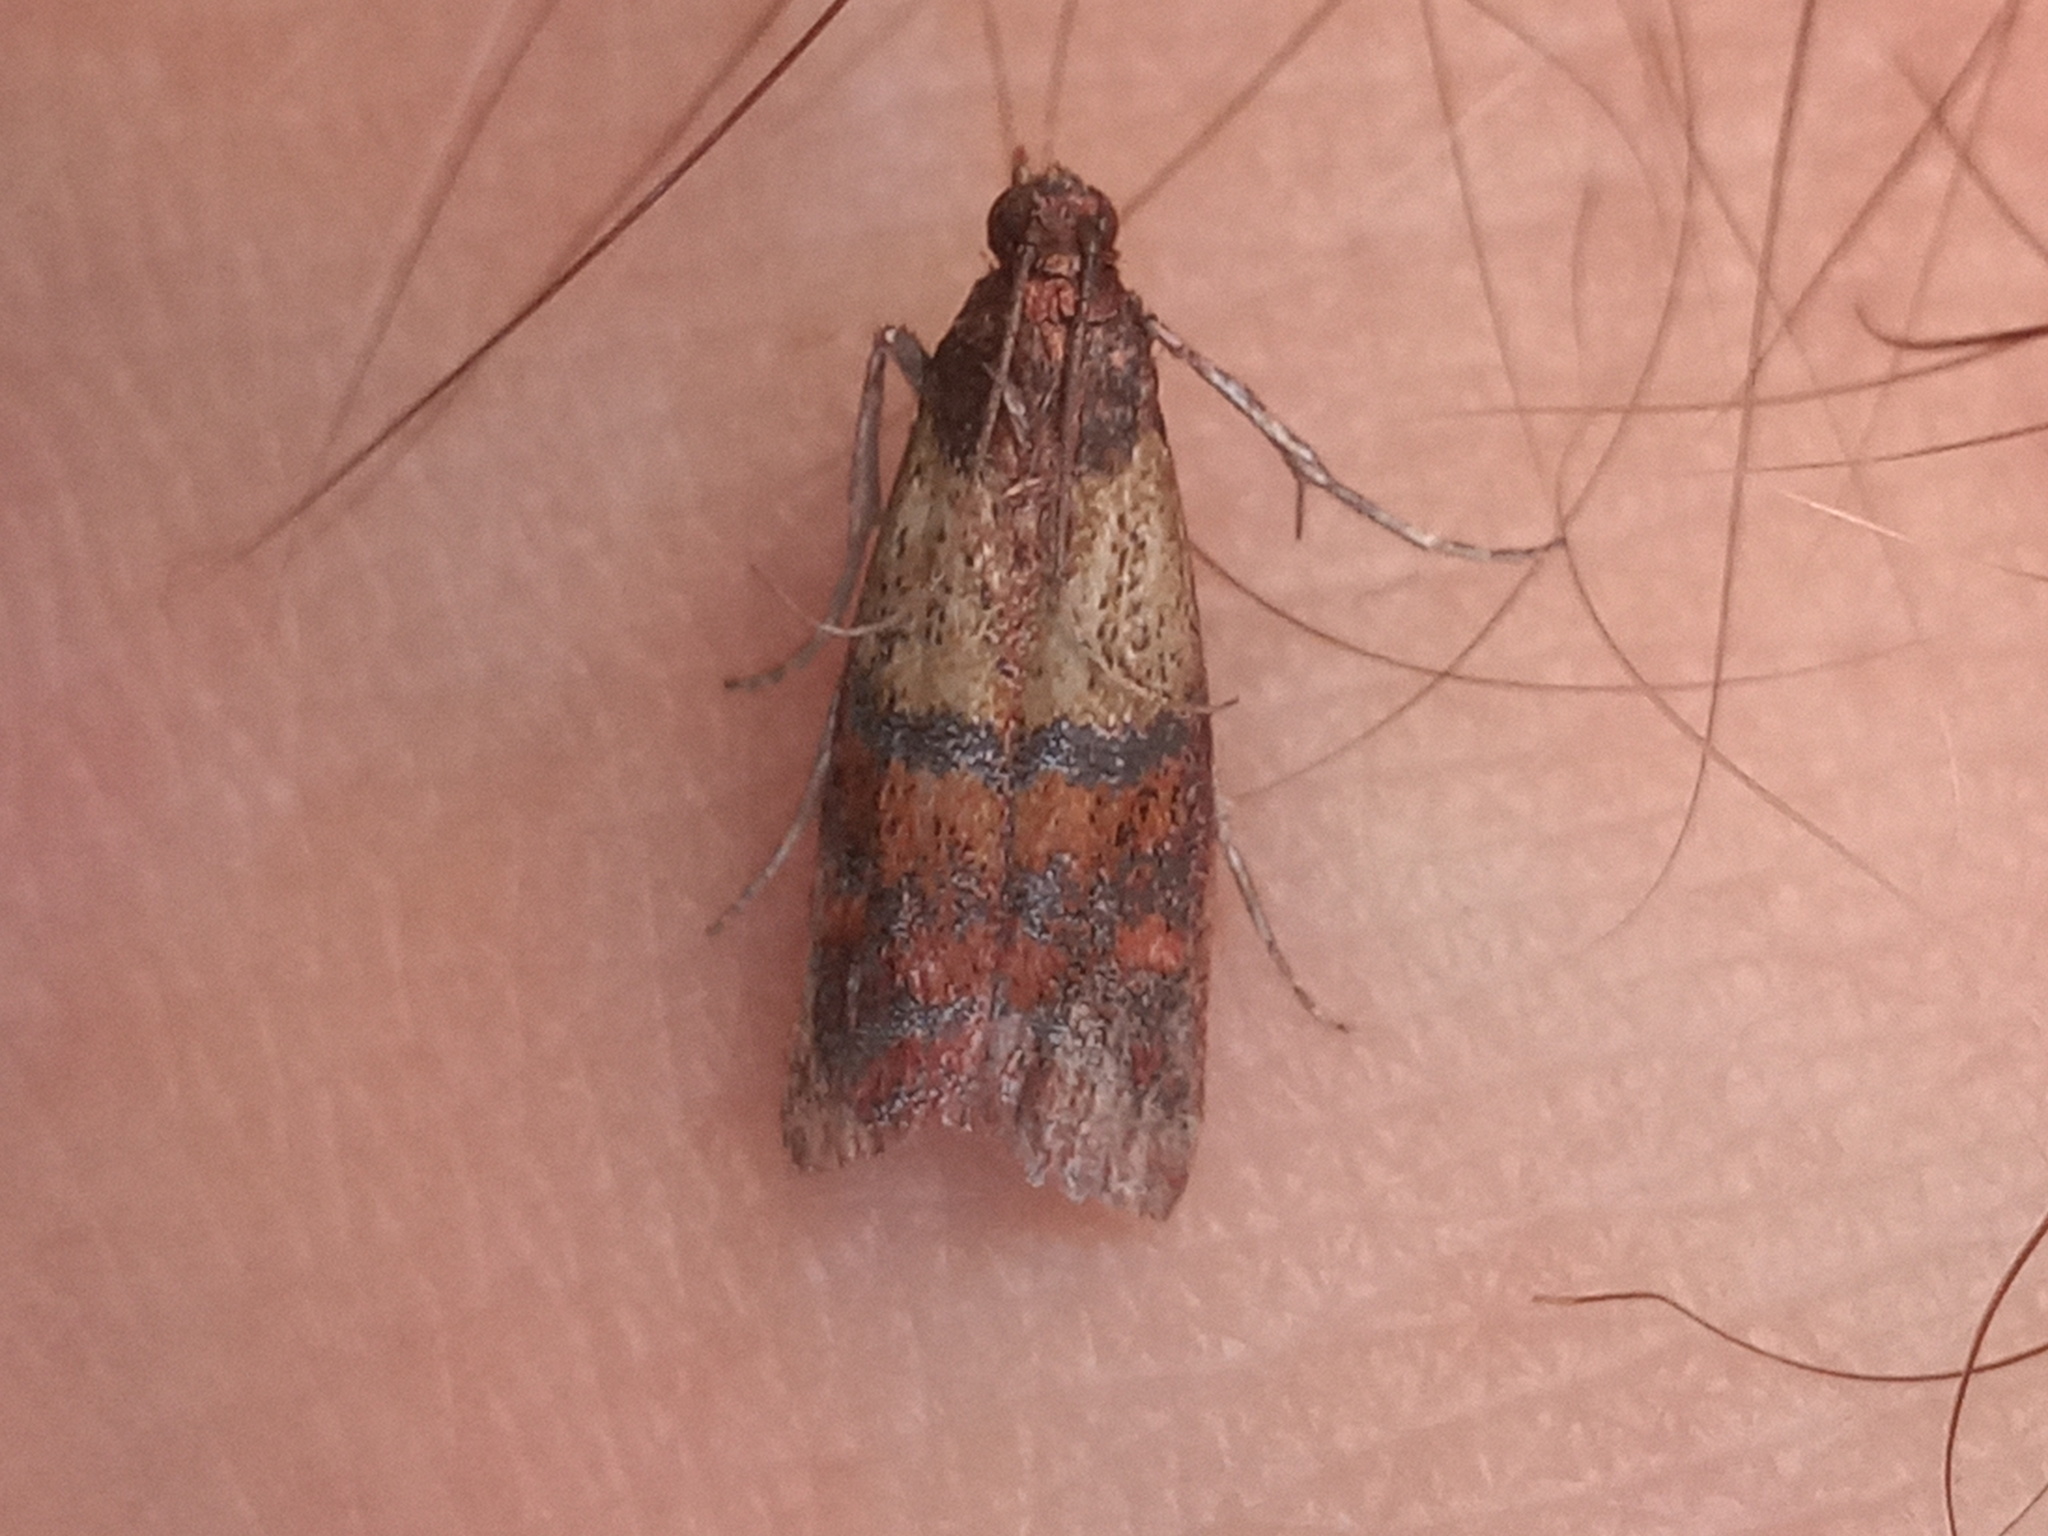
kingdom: Animalia
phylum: Arthropoda
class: Insecta
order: Lepidoptera
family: Pyralidae
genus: Plodia
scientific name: Plodia interpunctella
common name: Indian meal moth
